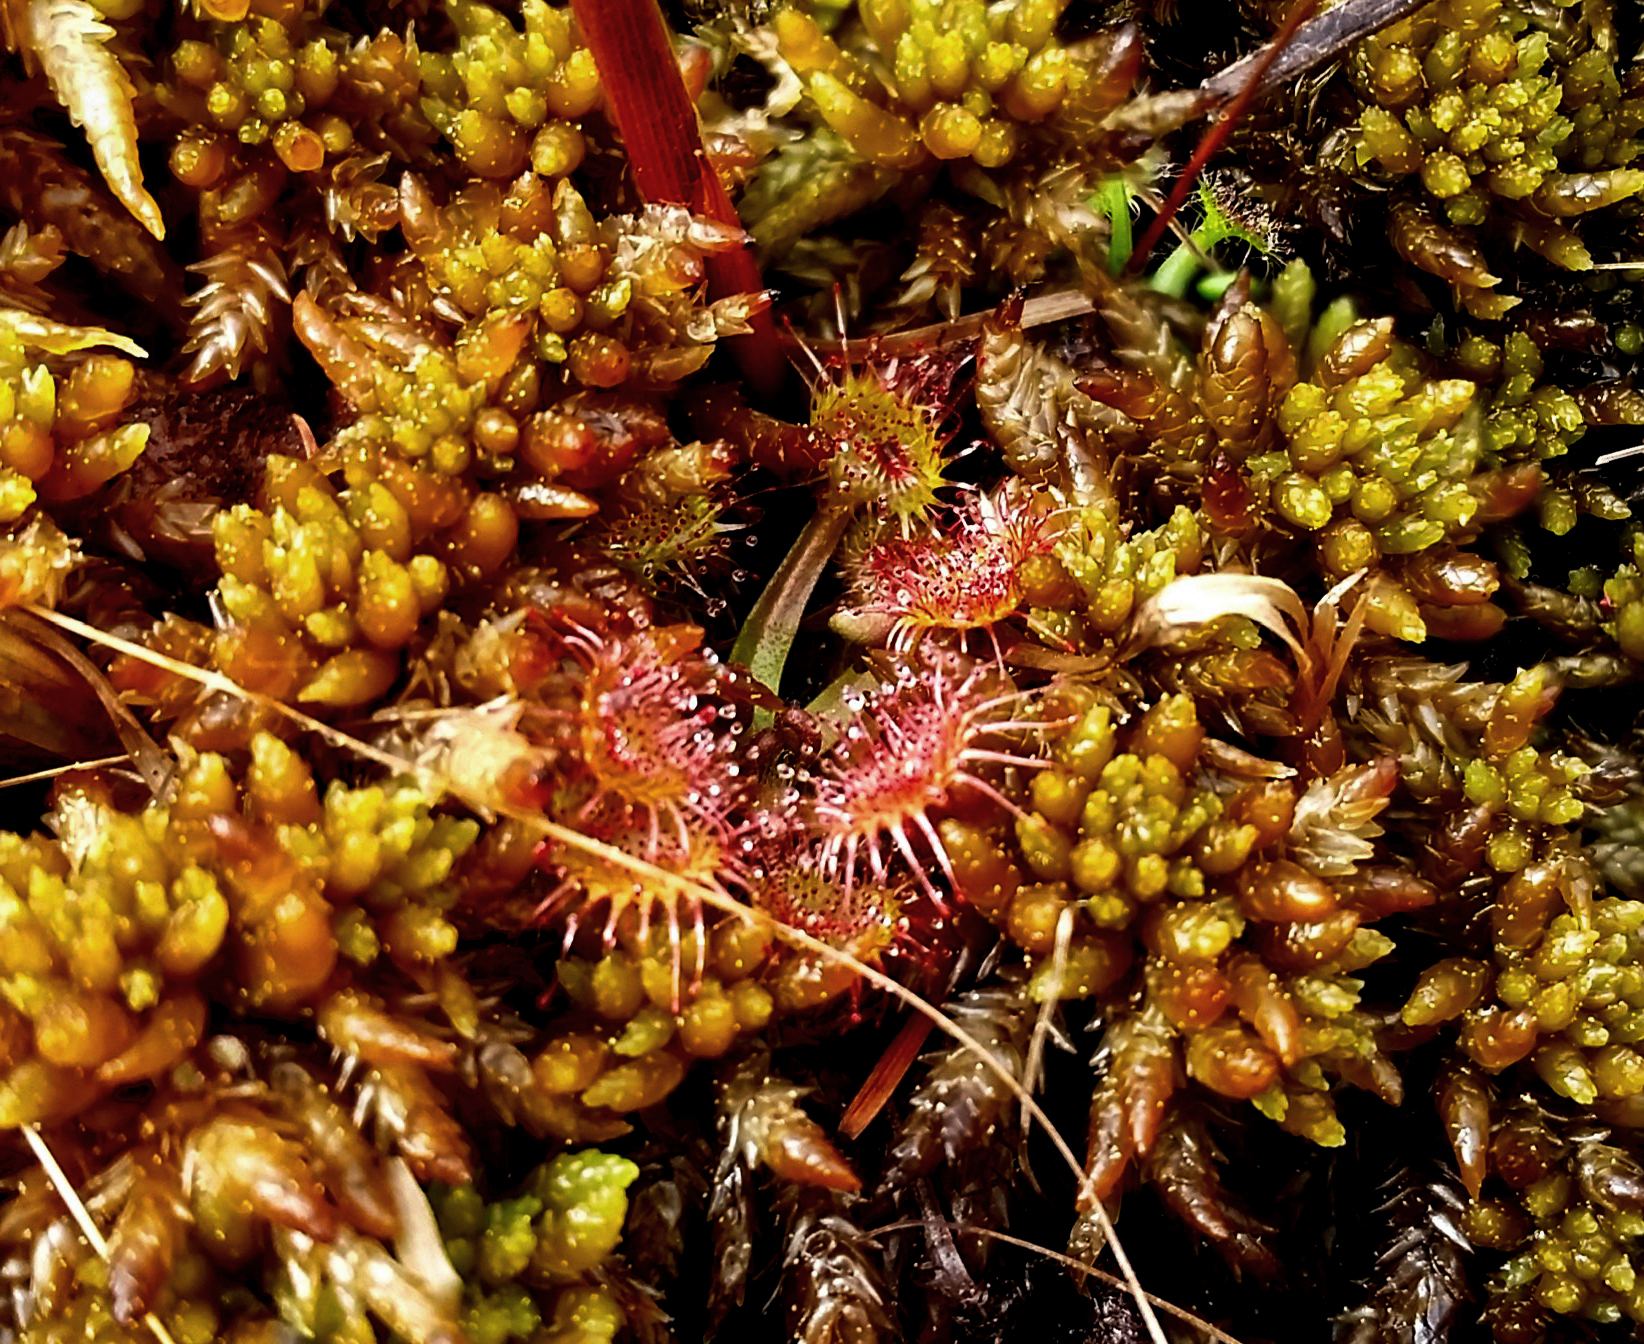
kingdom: Plantae
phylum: Tracheophyta
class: Magnoliopsida
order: Caryophyllales
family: Droseraceae
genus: Drosera
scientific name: Drosera rotundifolia
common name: Round-leaved sundew
